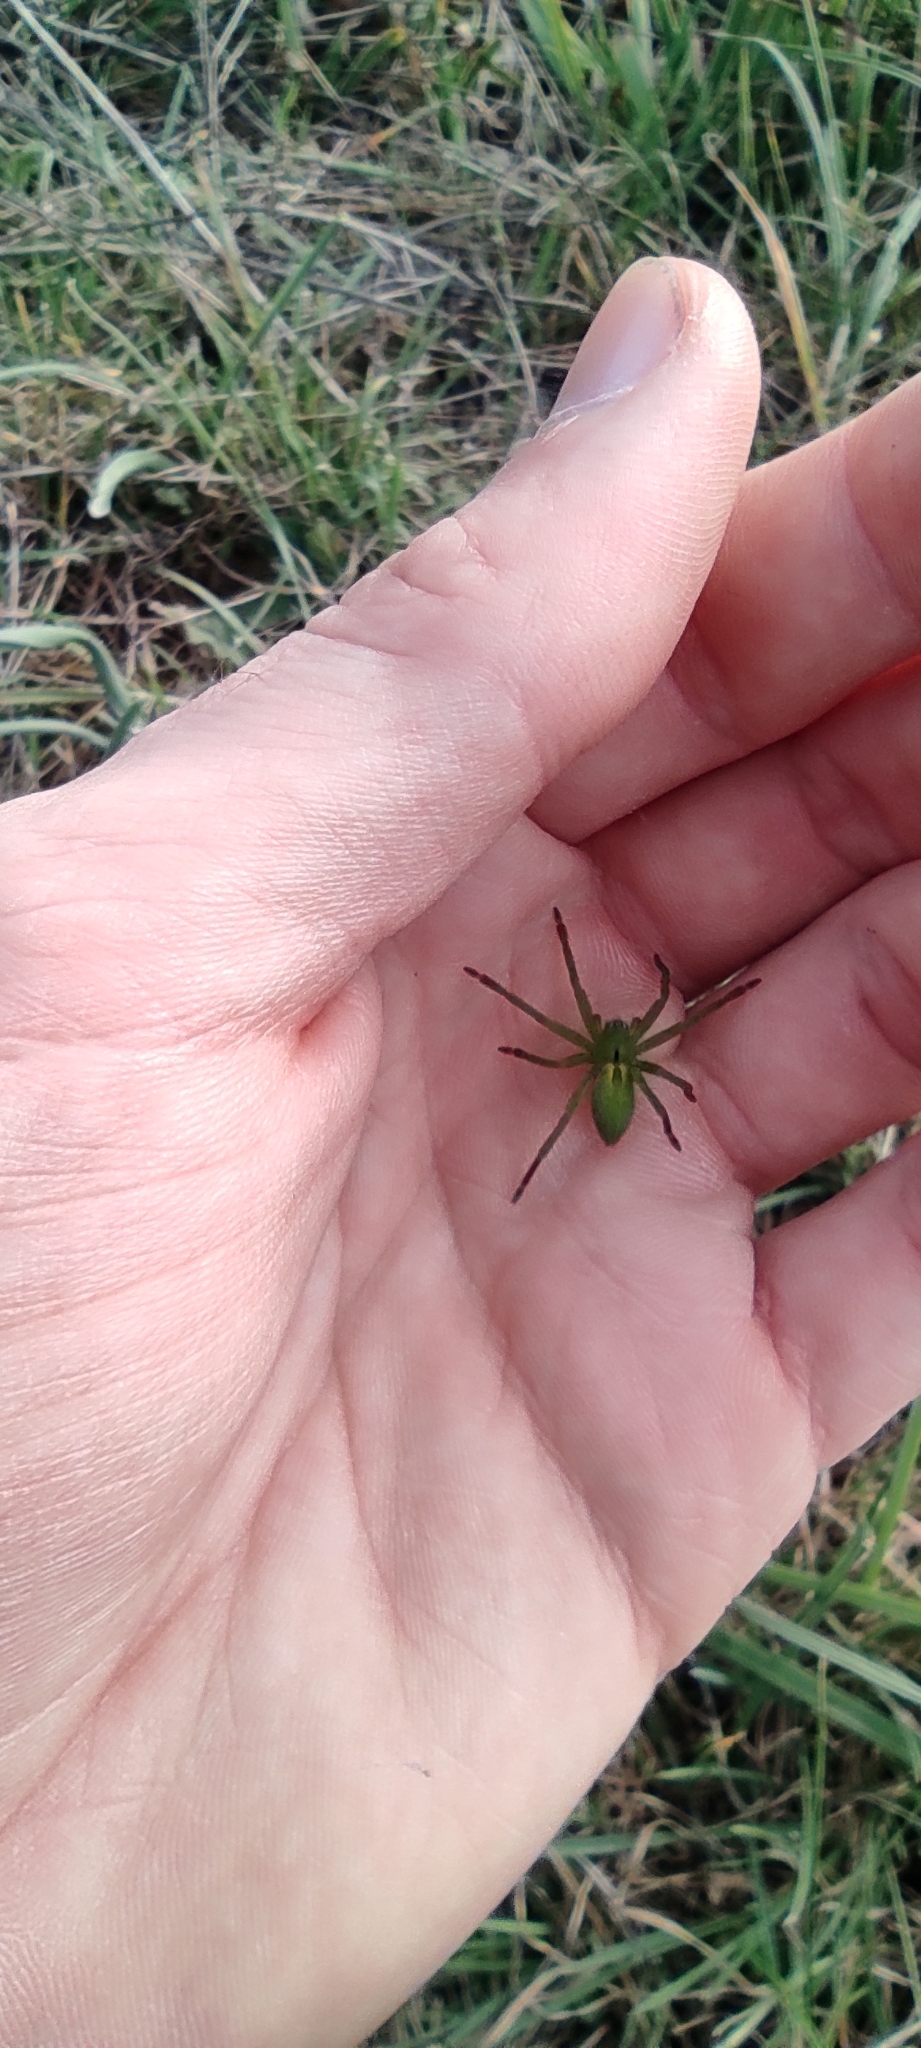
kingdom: Animalia
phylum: Arthropoda
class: Arachnida
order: Araneae
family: Sparassidae
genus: Micrommata
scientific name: Micrommata ligurina
